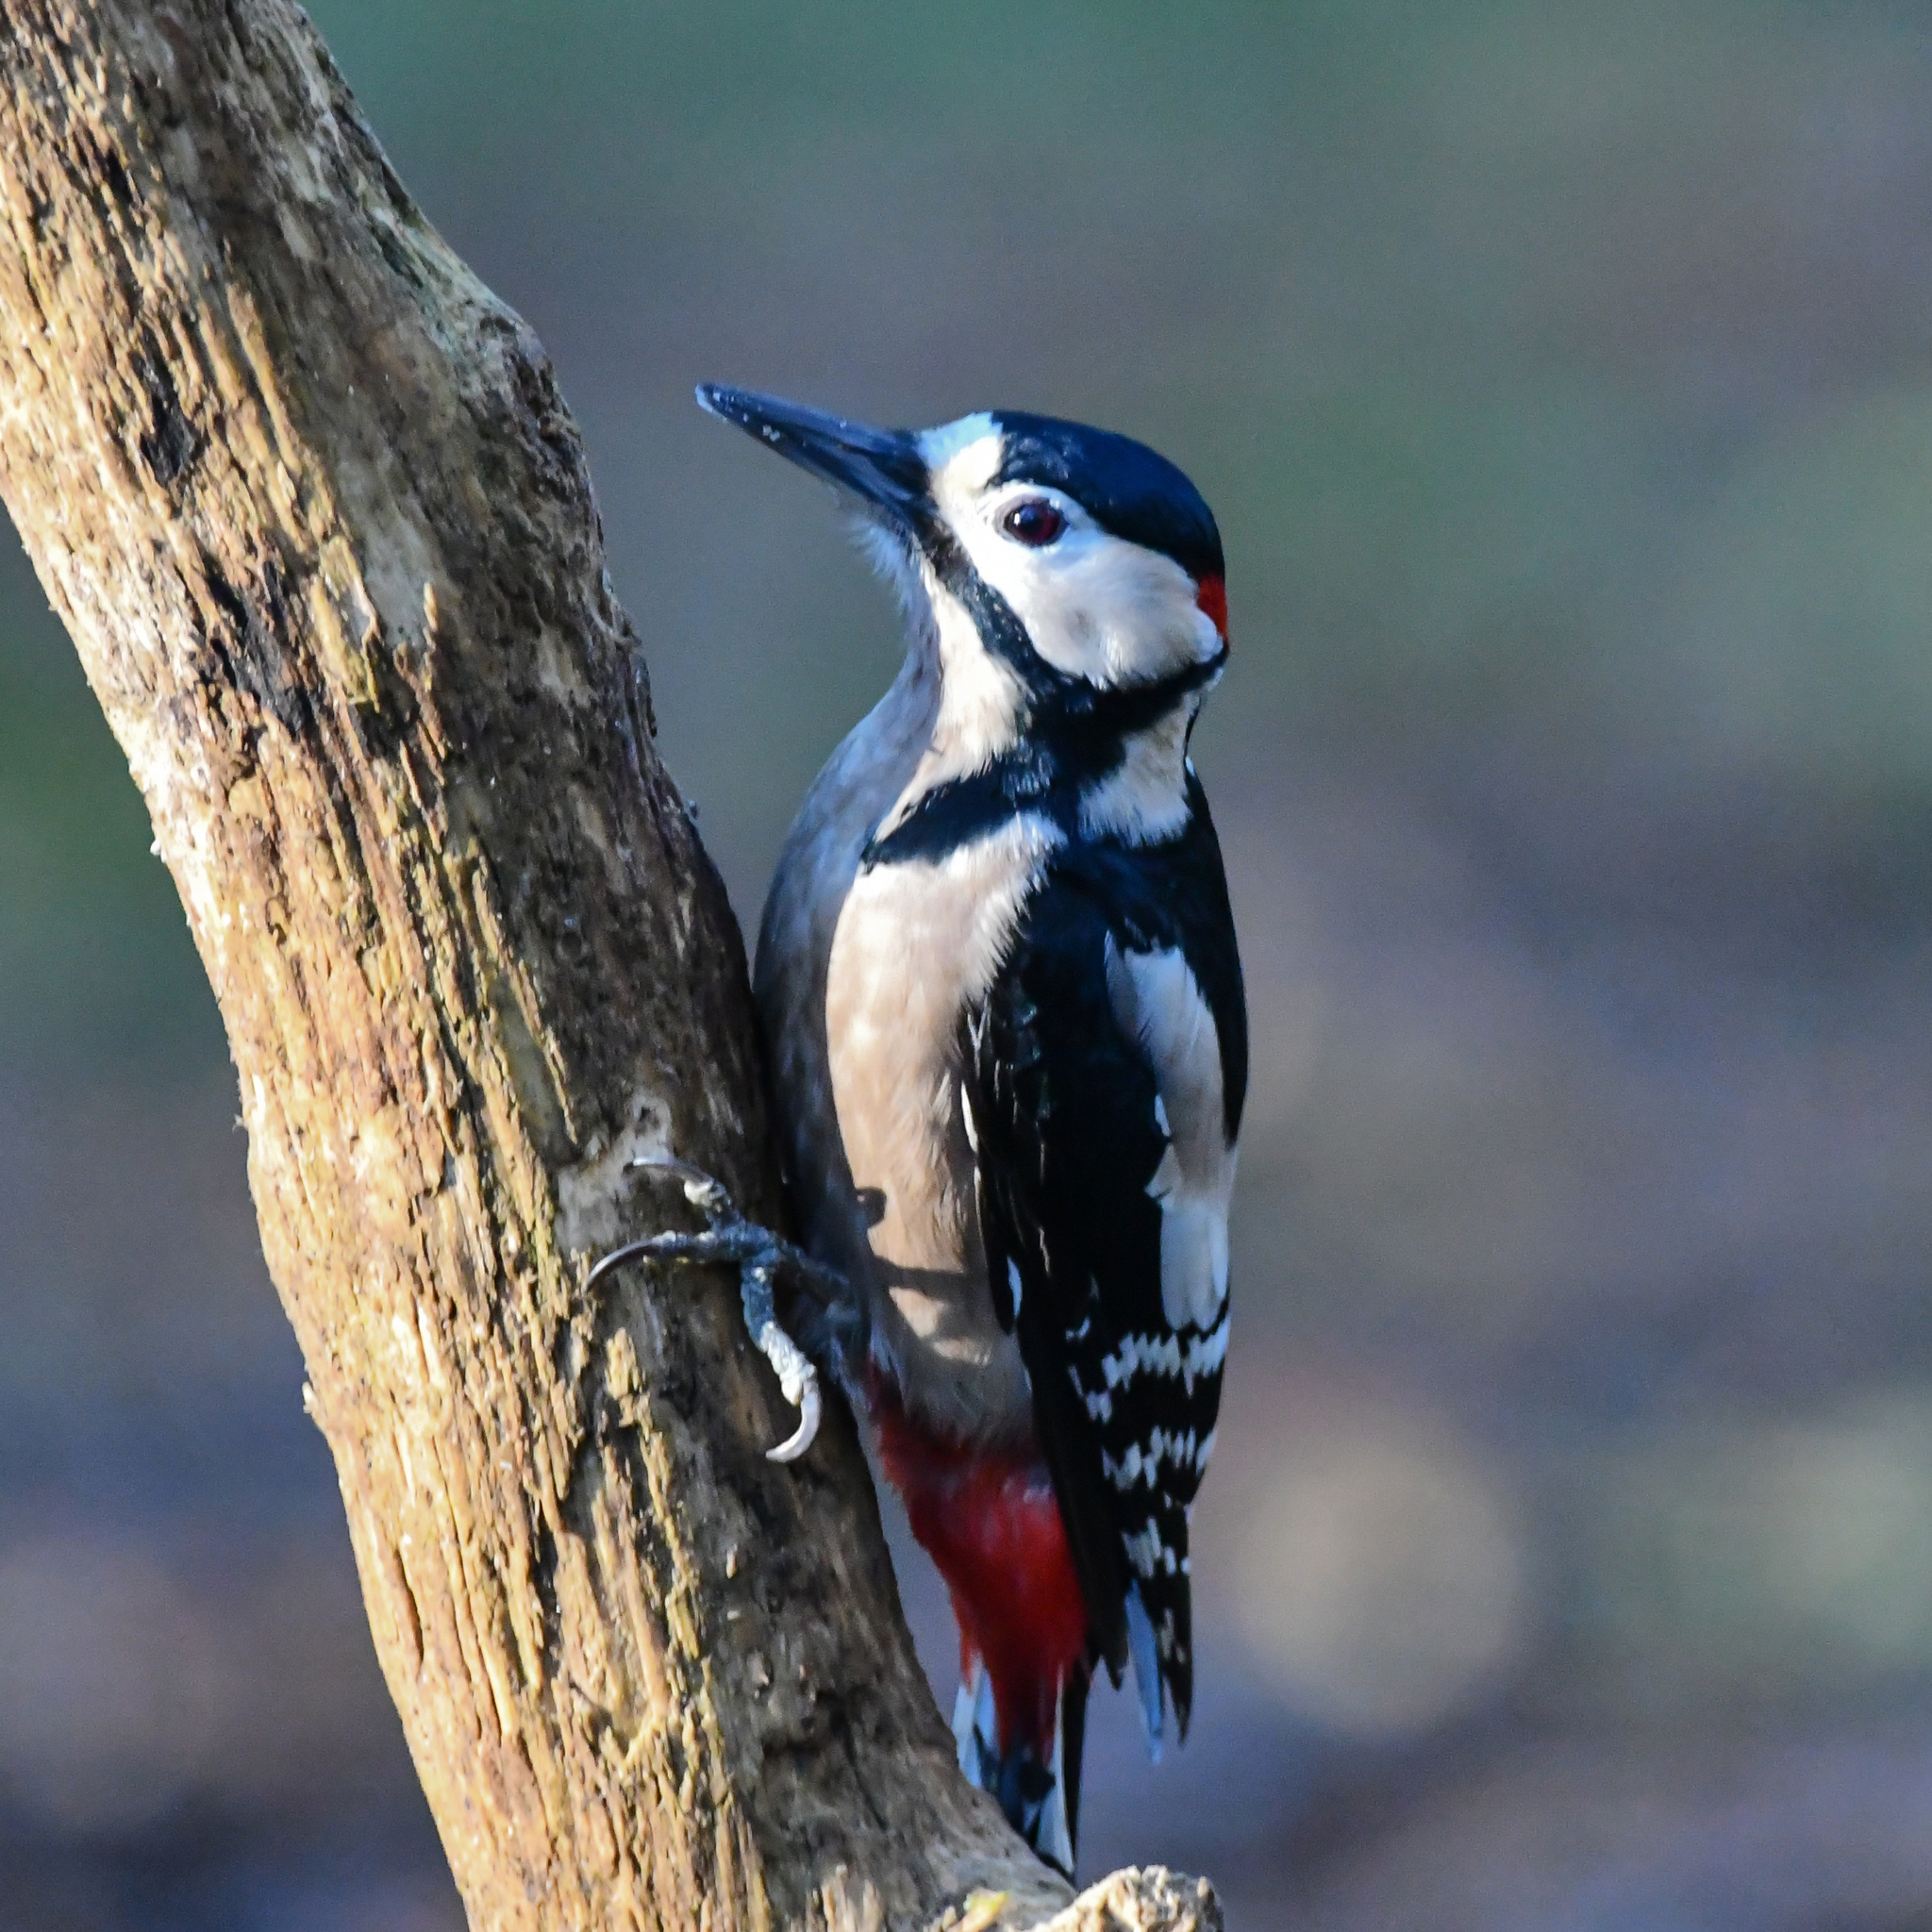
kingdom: Animalia
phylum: Chordata
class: Aves
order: Piciformes
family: Picidae
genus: Dendrocopos
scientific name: Dendrocopos major
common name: Great spotted woodpecker
